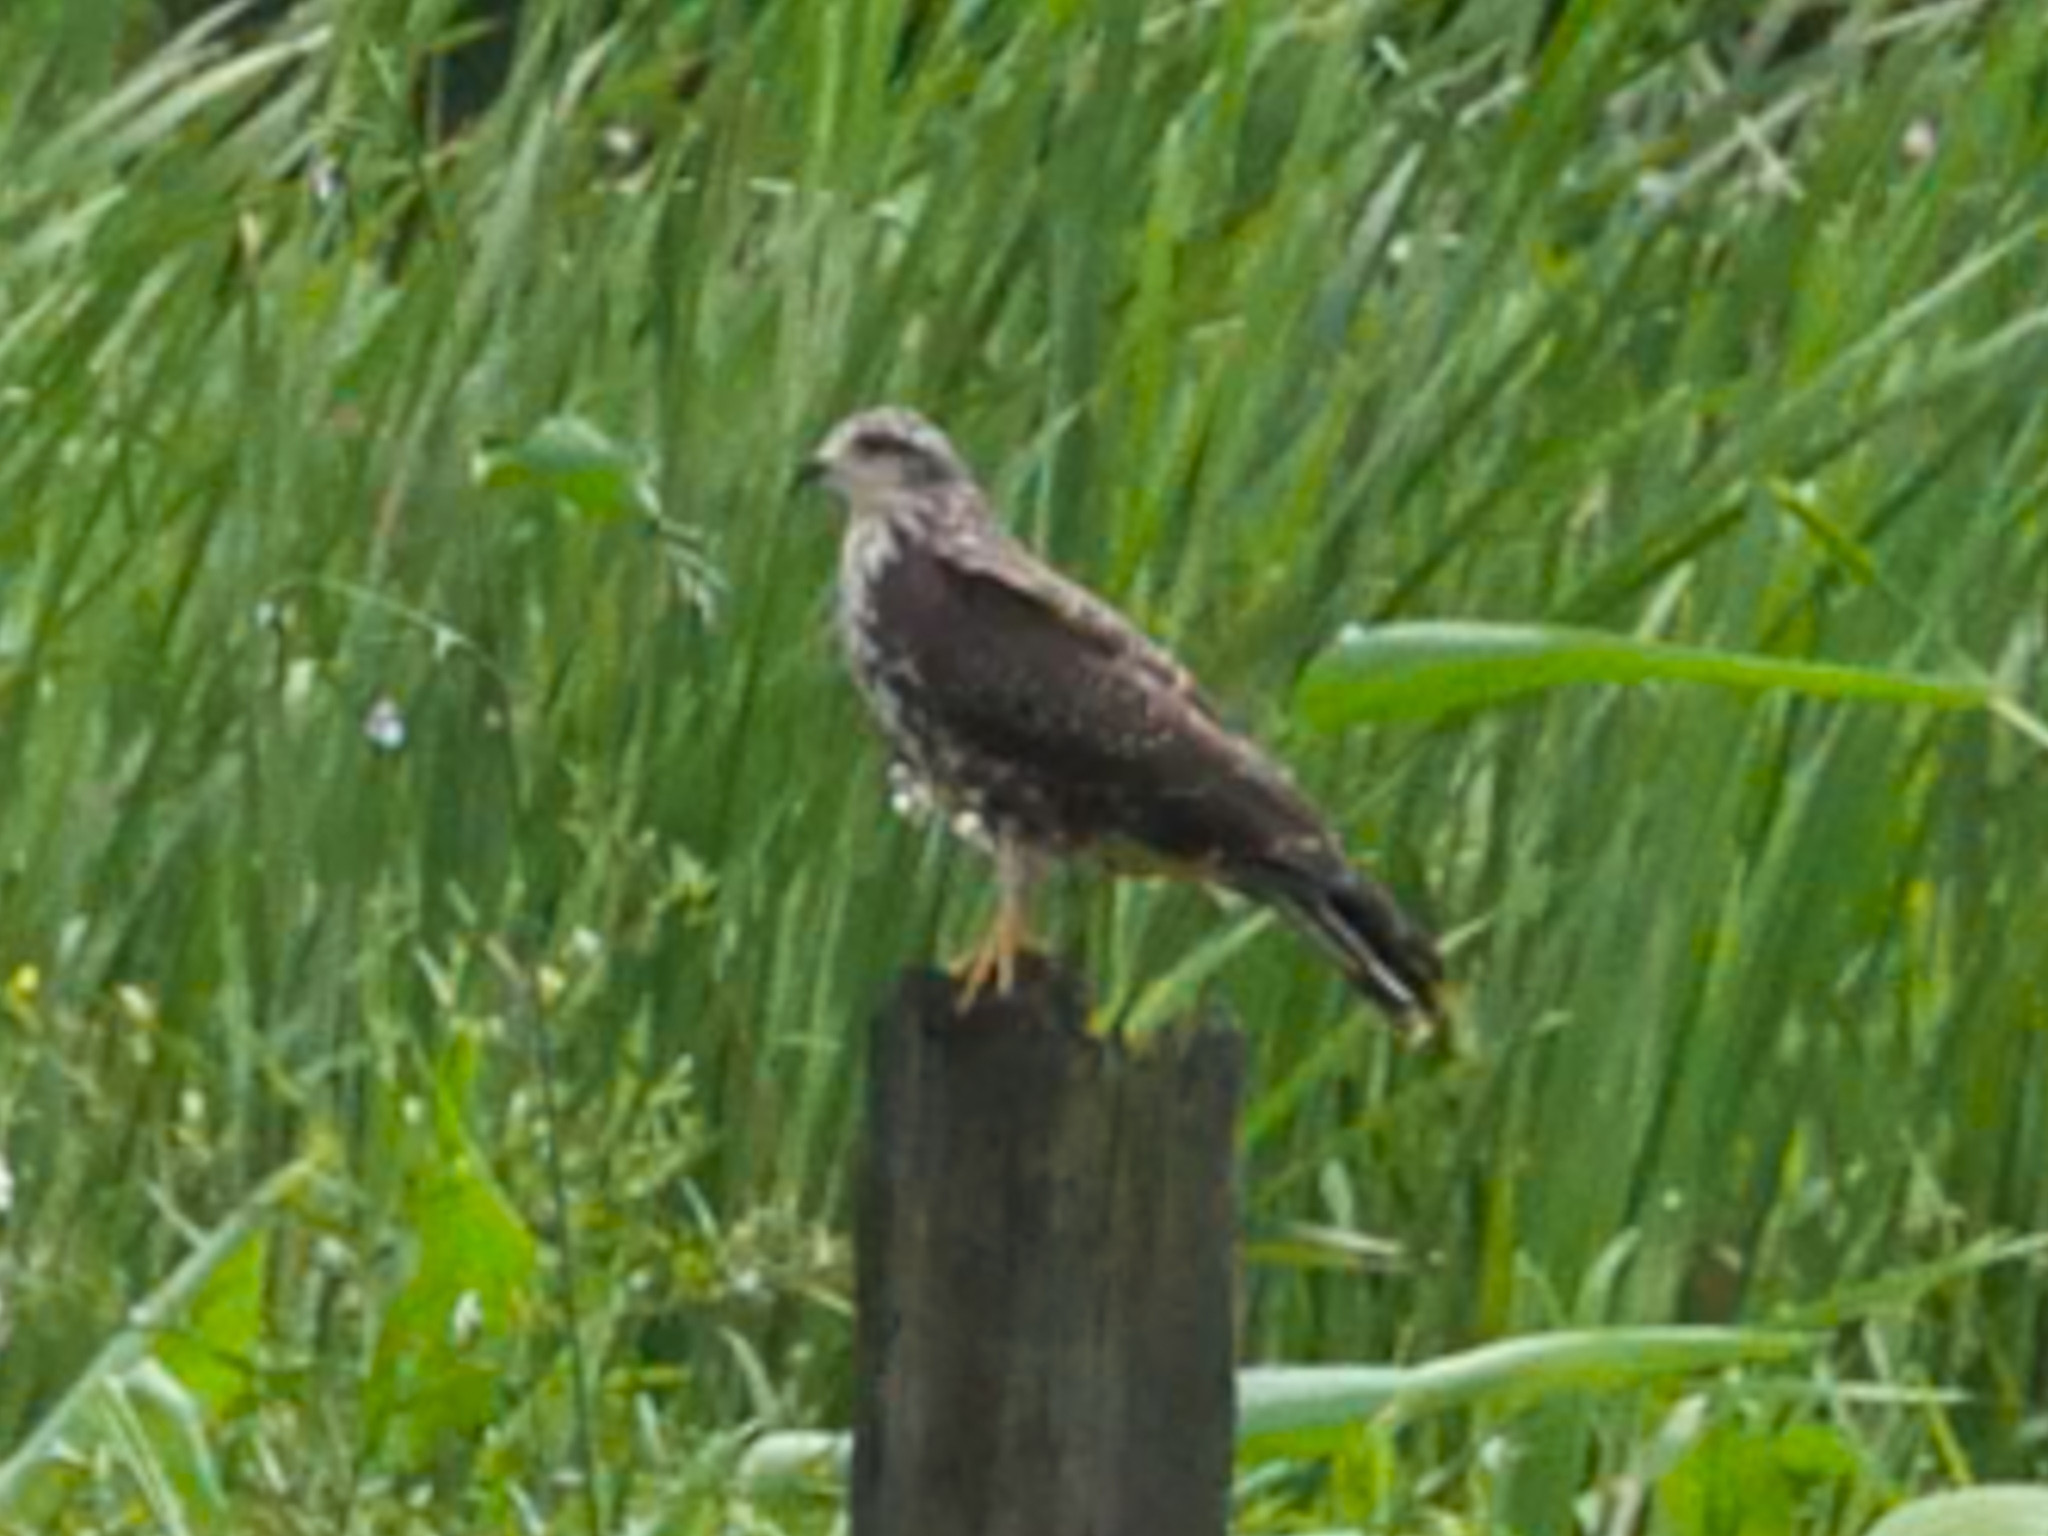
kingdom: Animalia
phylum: Chordata
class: Aves
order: Accipitriformes
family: Accipitridae
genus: Rostrhamus
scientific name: Rostrhamus sociabilis
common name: Snail kite
